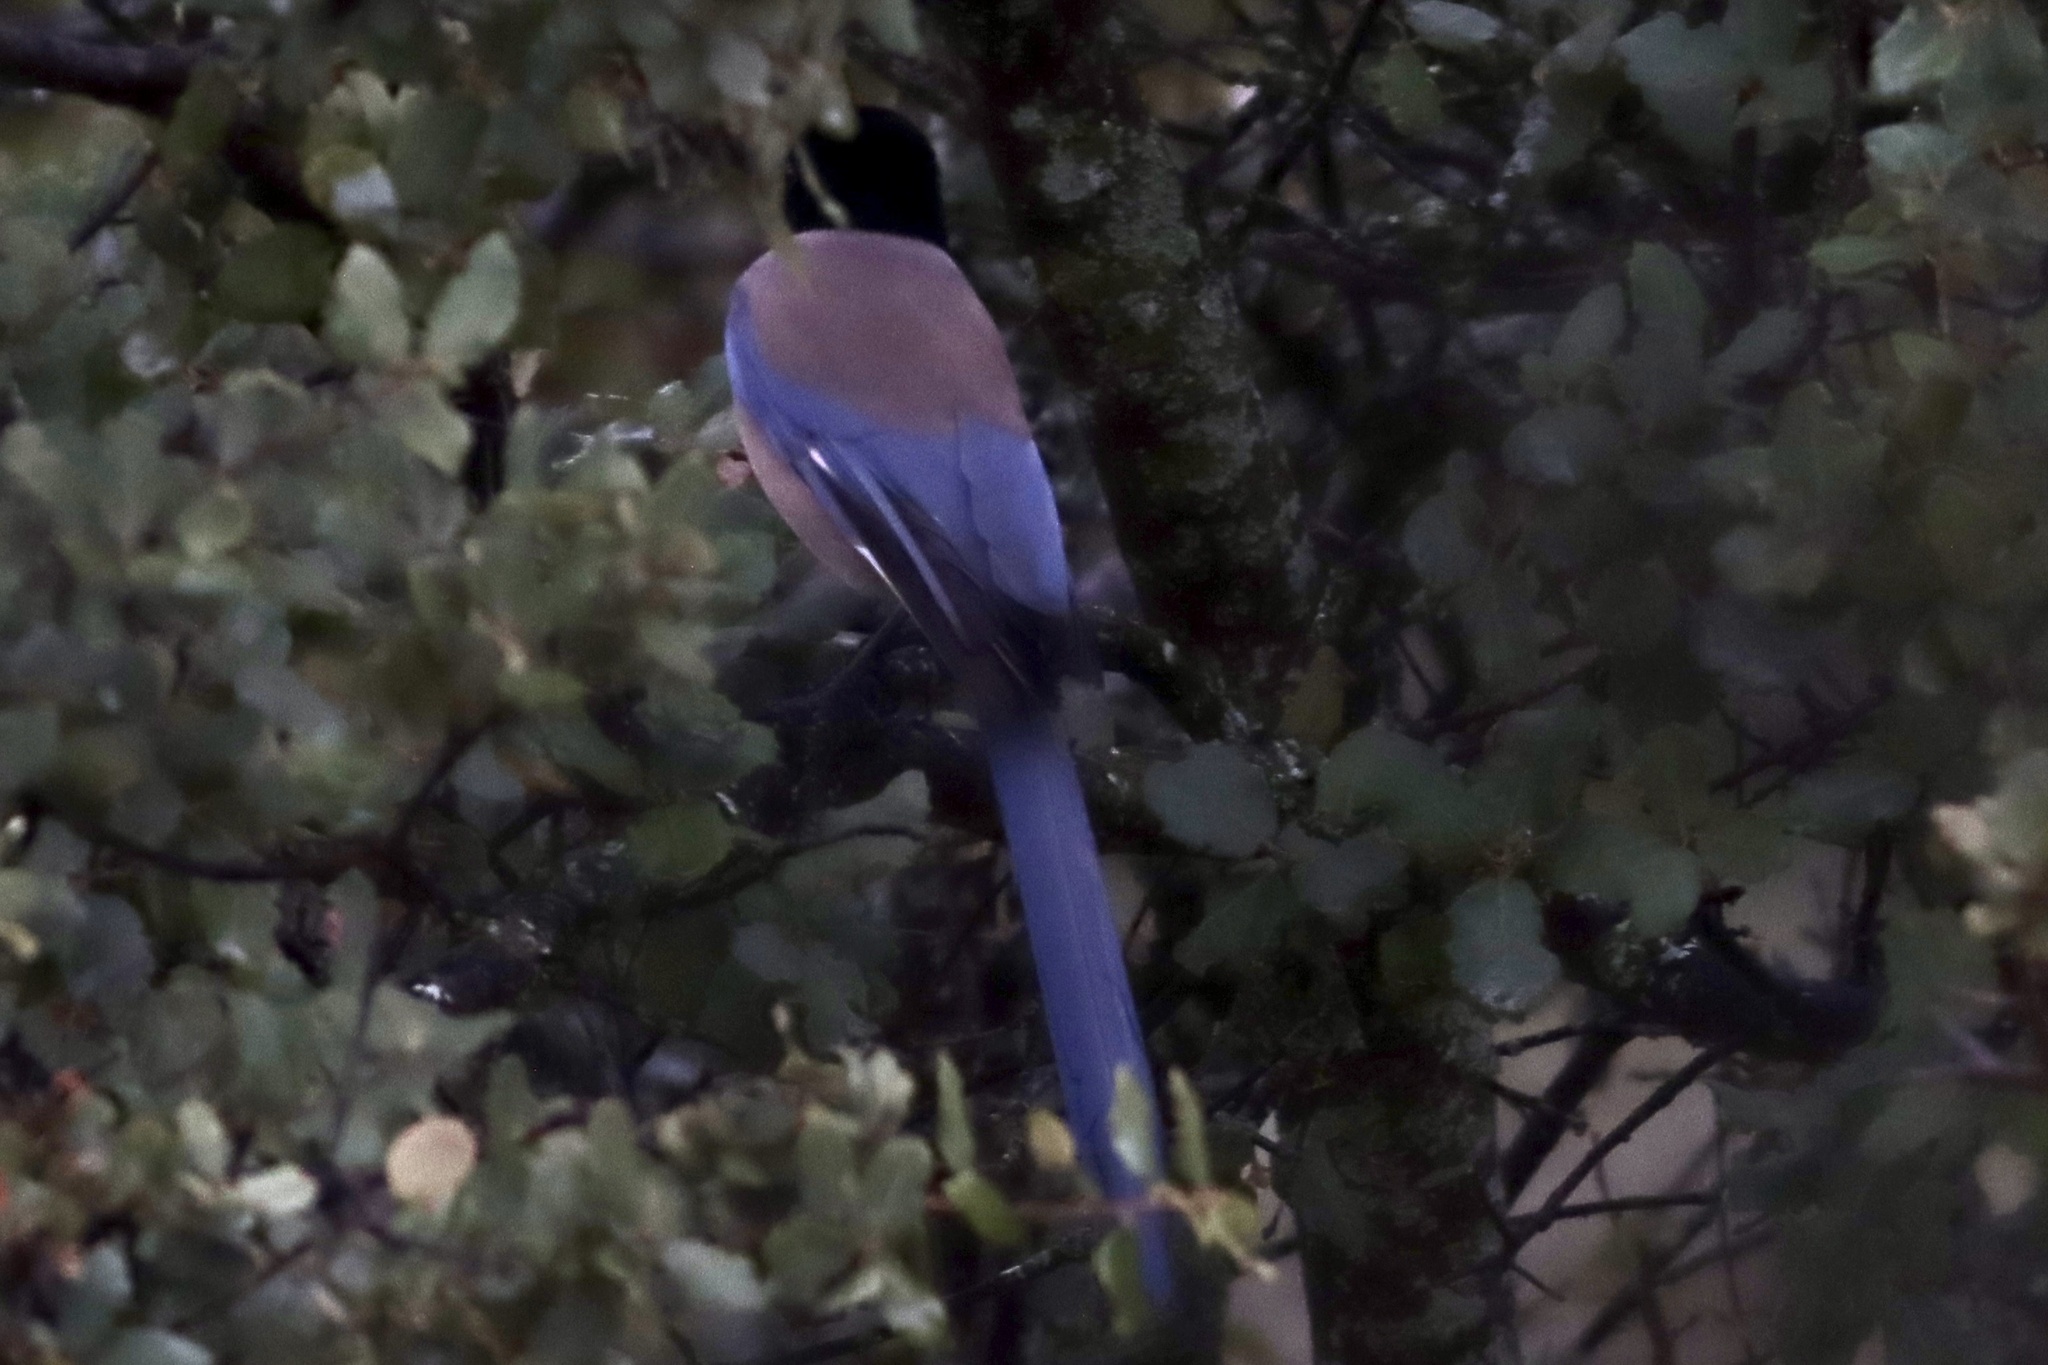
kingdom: Animalia
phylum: Chordata
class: Aves
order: Passeriformes
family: Corvidae
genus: Cyanopica
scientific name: Cyanopica cooki
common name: Iberian magpie
